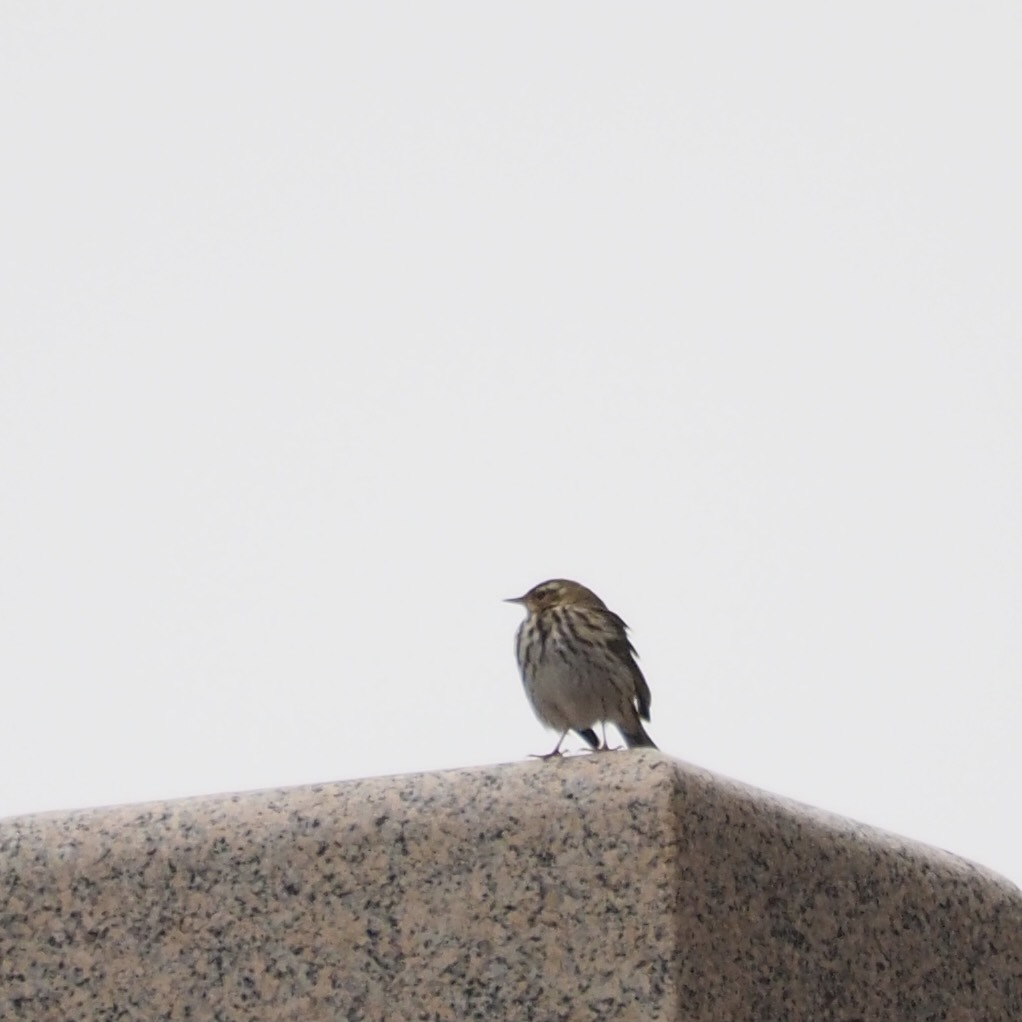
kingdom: Animalia
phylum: Chordata
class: Aves
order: Passeriformes
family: Motacillidae
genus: Anthus
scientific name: Anthus hodgsoni
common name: Olive-backed pipit
